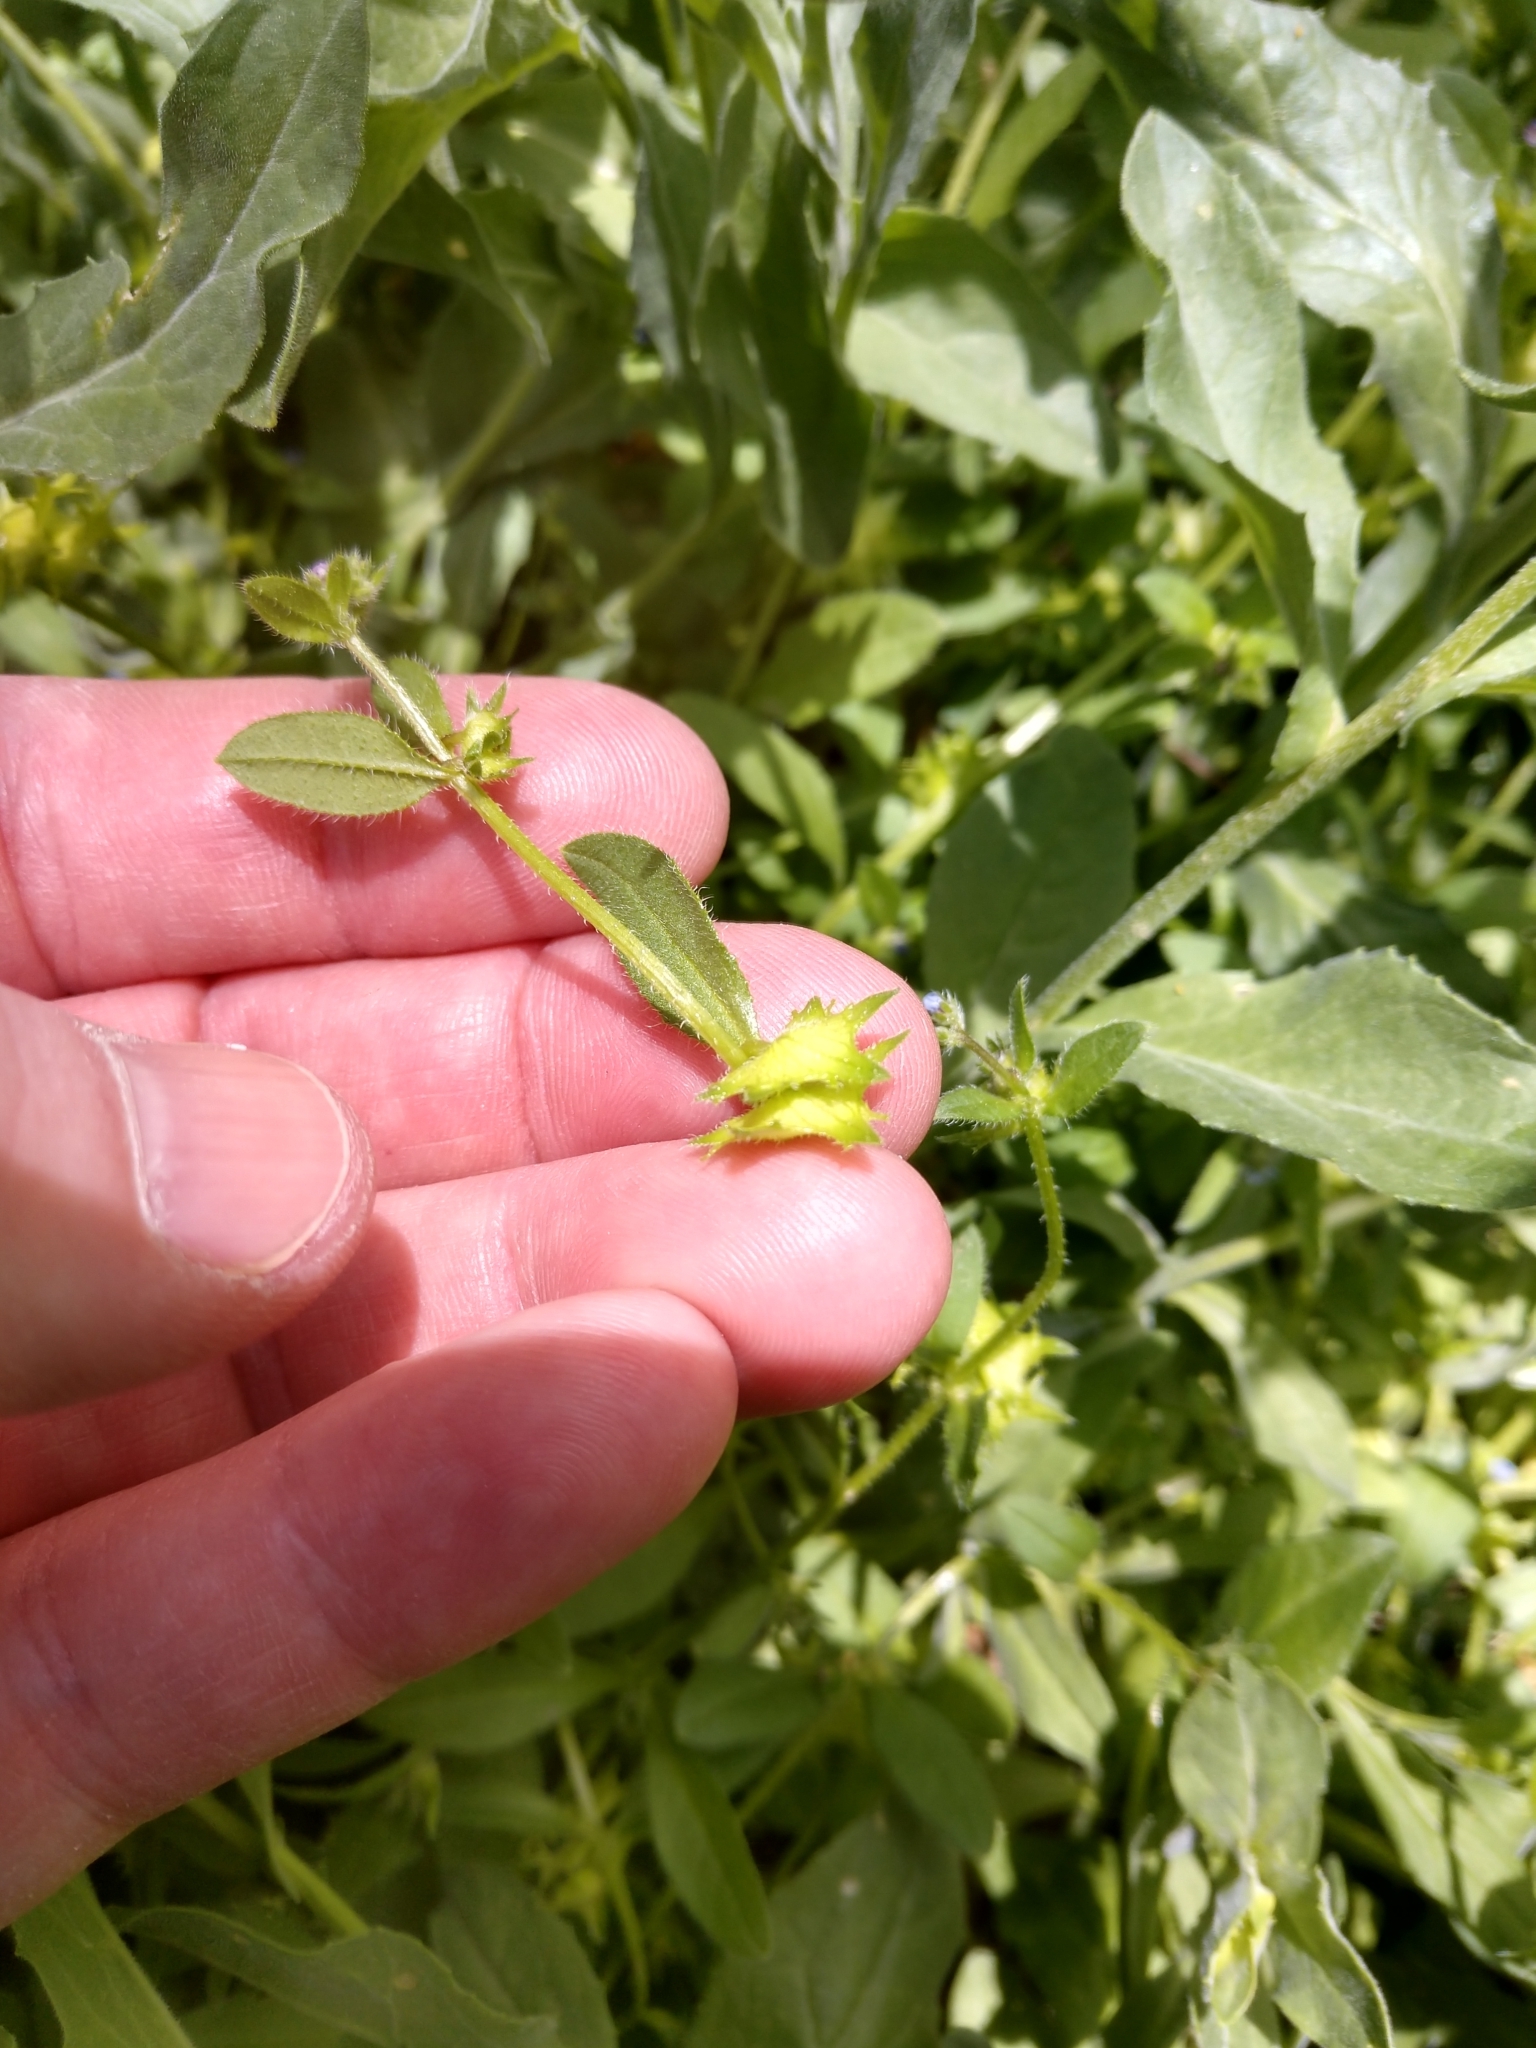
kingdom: Plantae
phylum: Tracheophyta
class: Magnoliopsida
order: Boraginales
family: Boraginaceae
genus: Asperugo
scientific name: Asperugo procumbens
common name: Madwort
